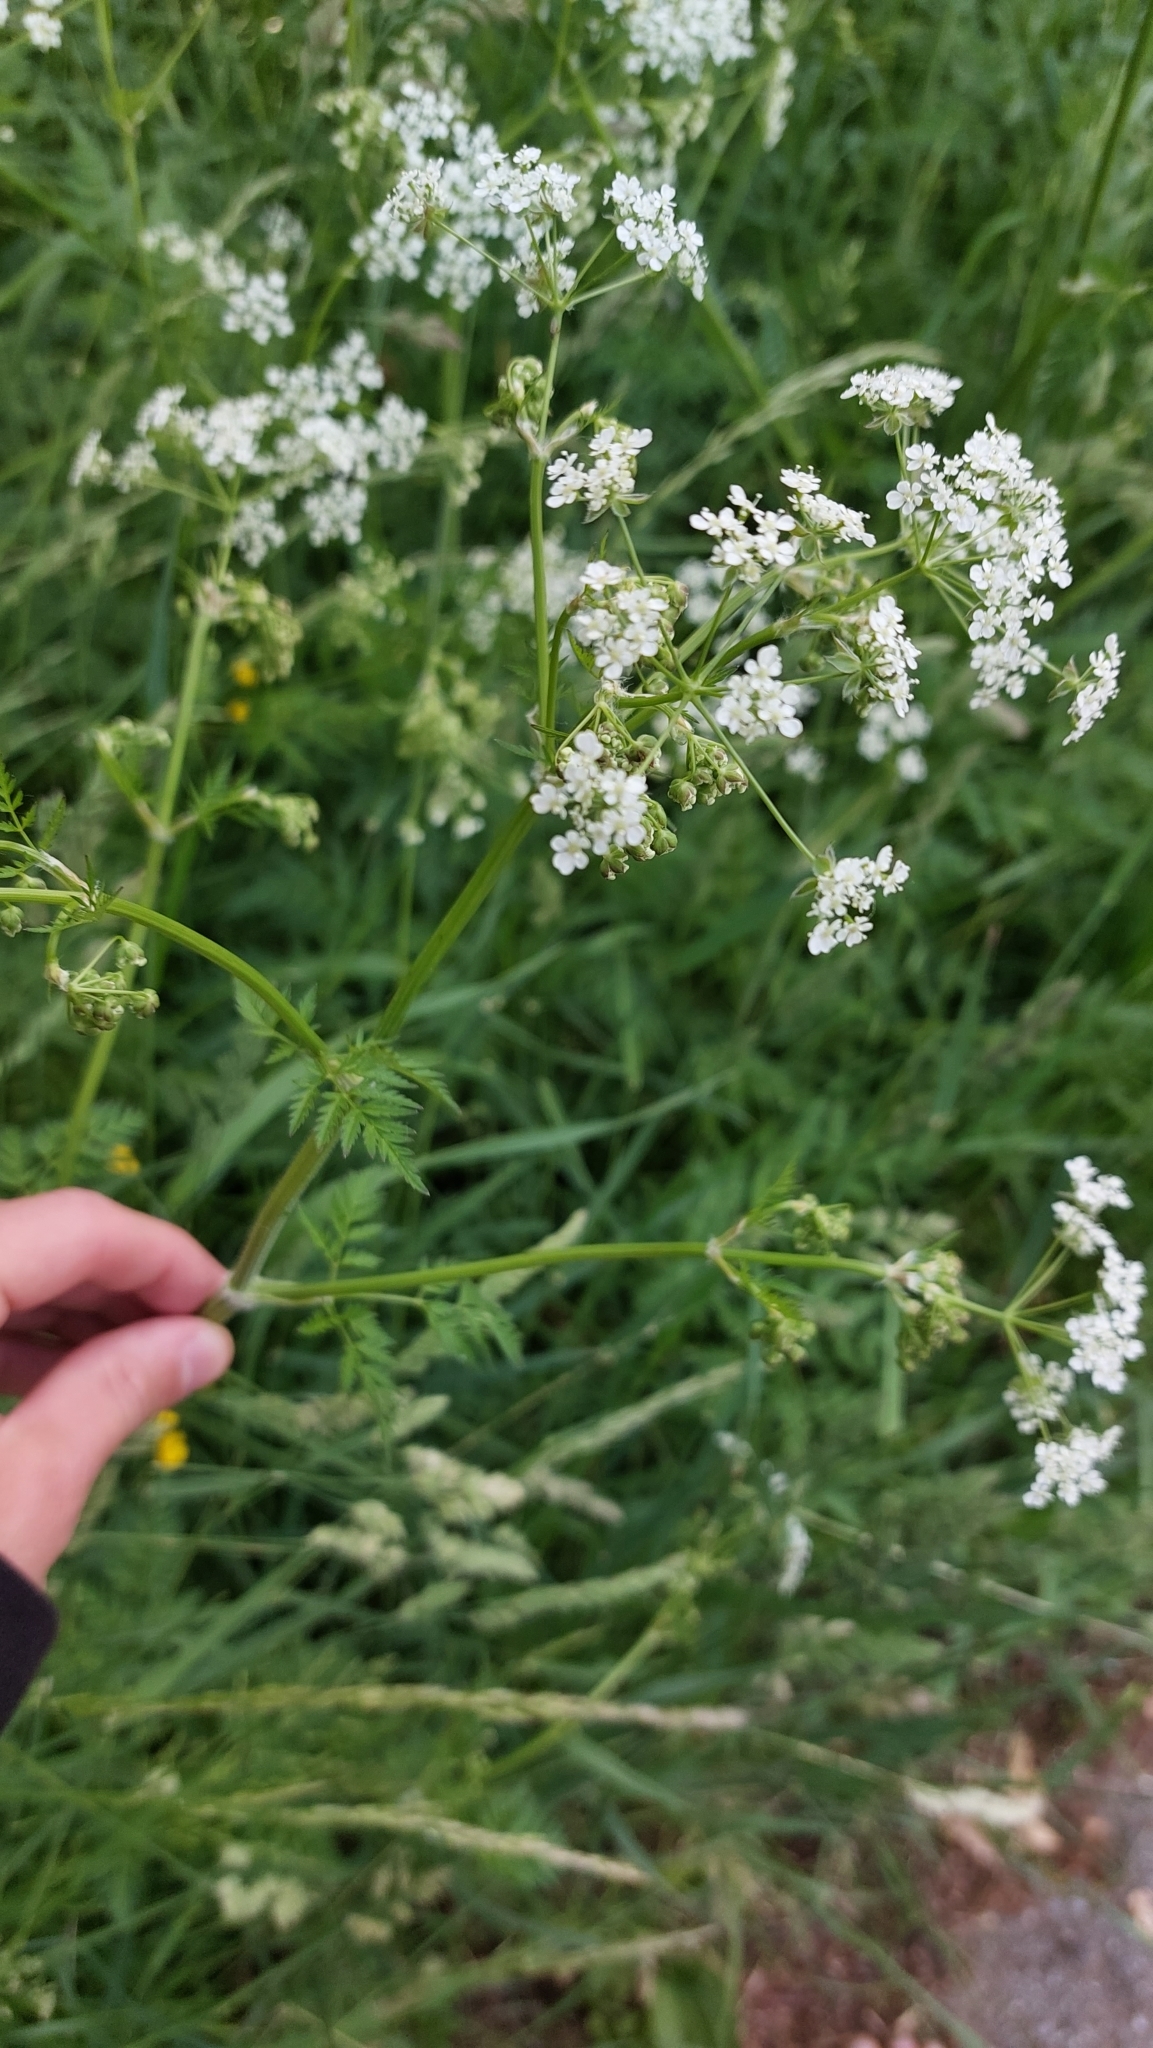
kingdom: Plantae
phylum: Tracheophyta
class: Magnoliopsida
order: Apiales
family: Apiaceae
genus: Anthriscus
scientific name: Anthriscus sylvestris
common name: Cow parsley
